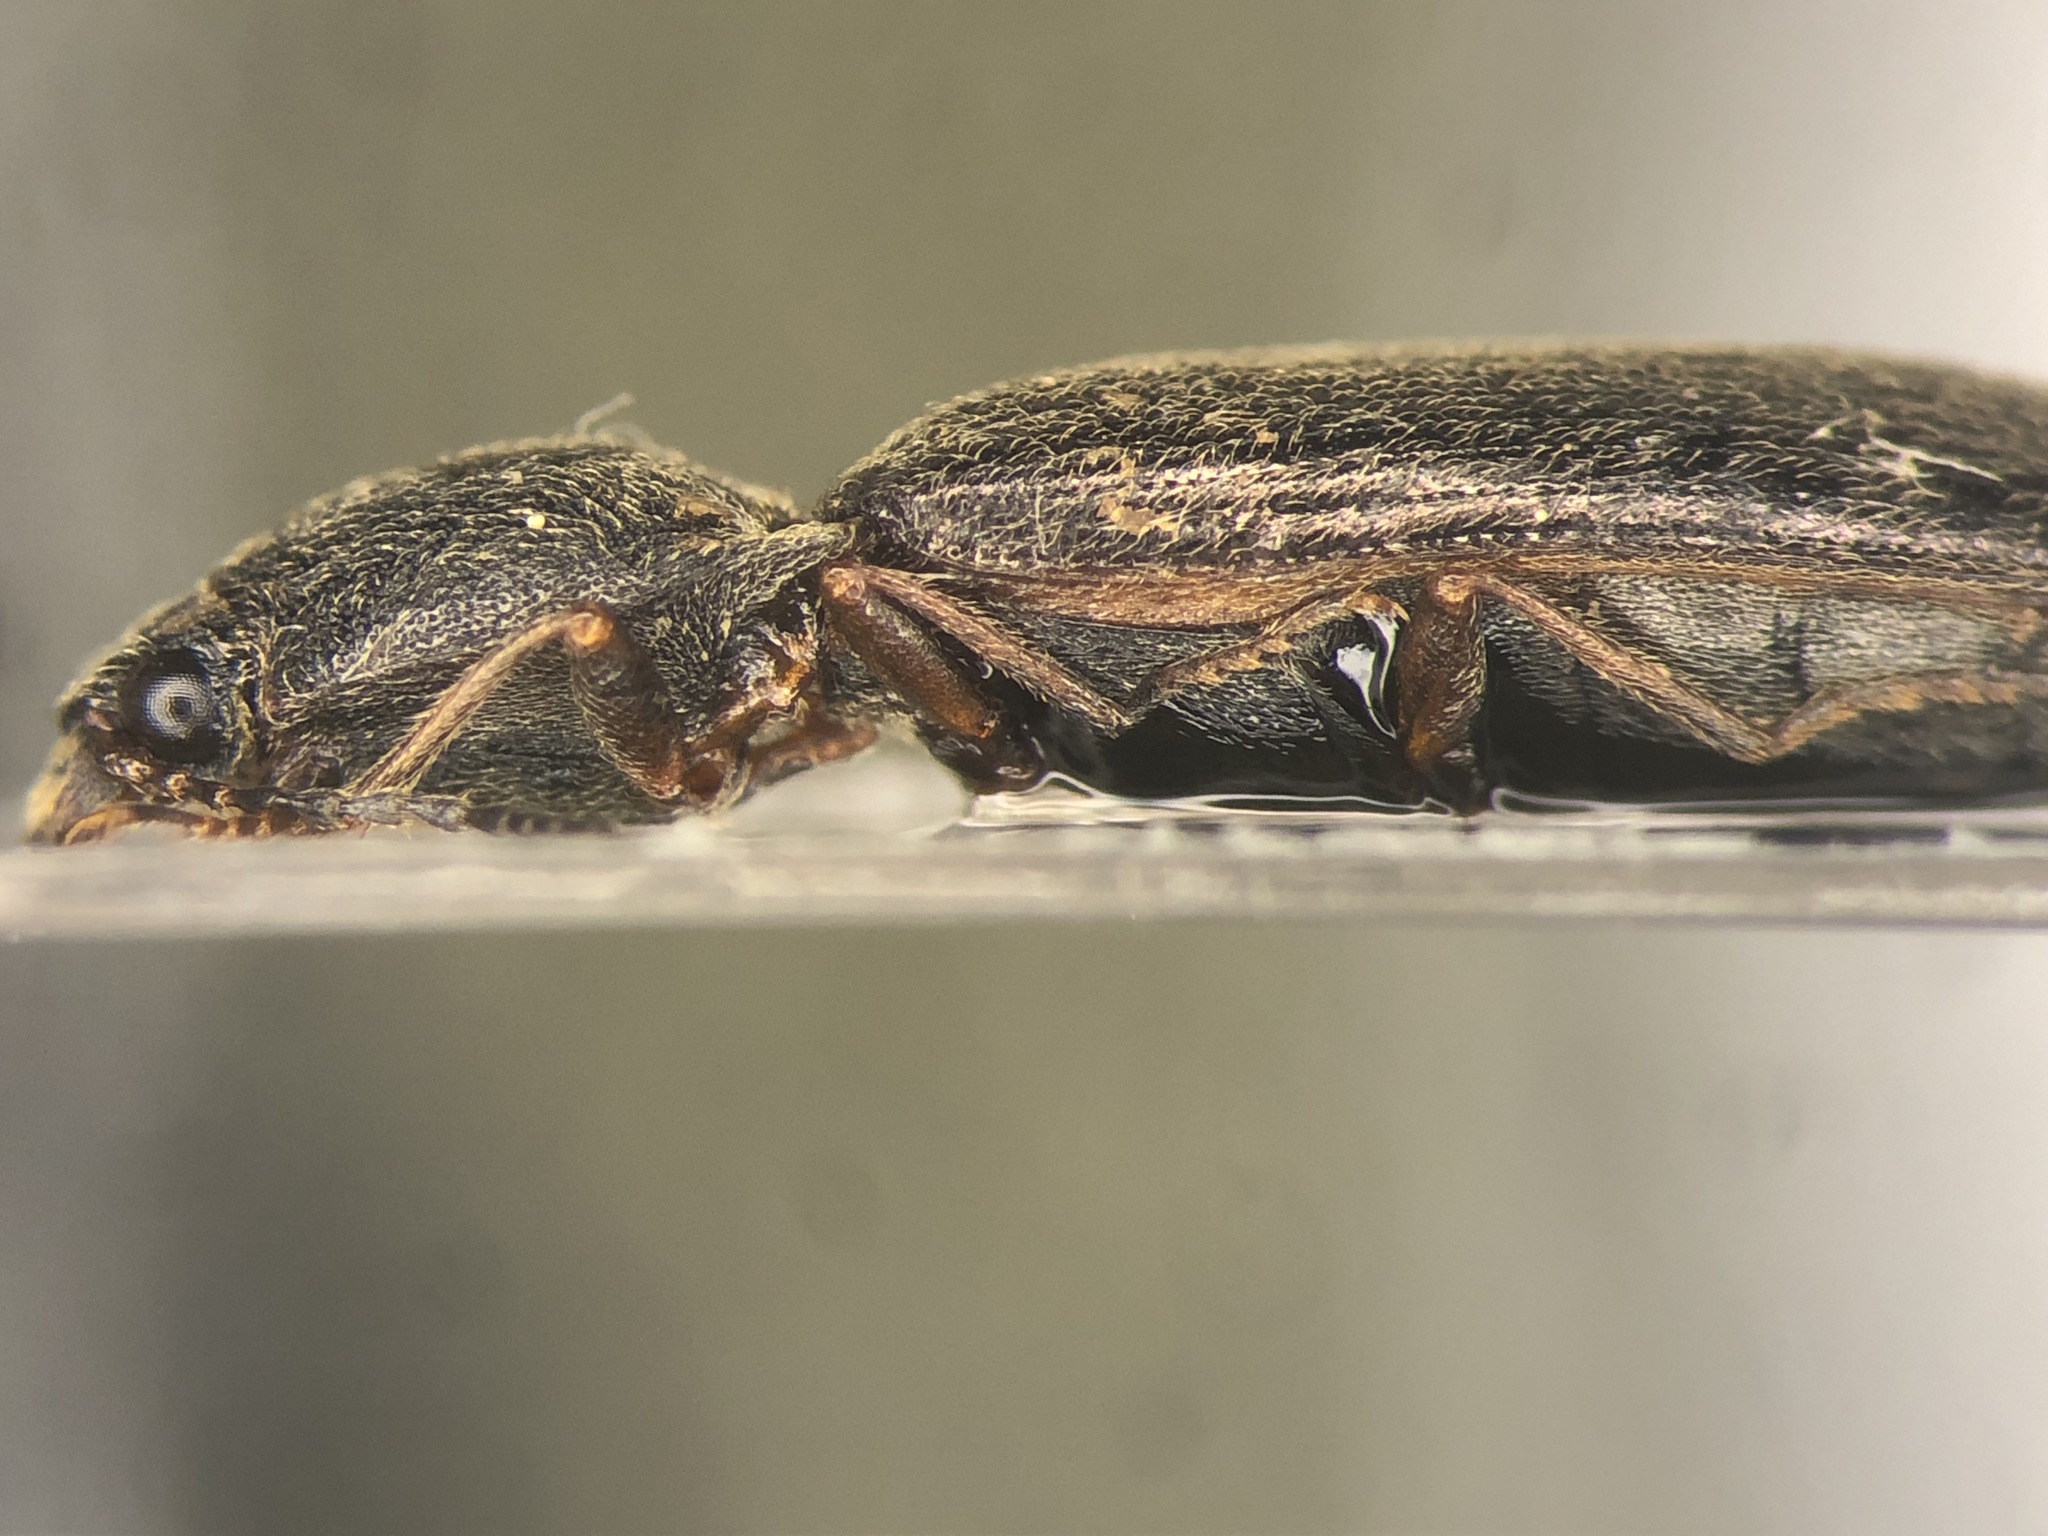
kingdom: Animalia
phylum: Arthropoda
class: Insecta
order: Coleoptera
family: Elateridae
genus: Sylvanelater
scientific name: Sylvanelater mendax
